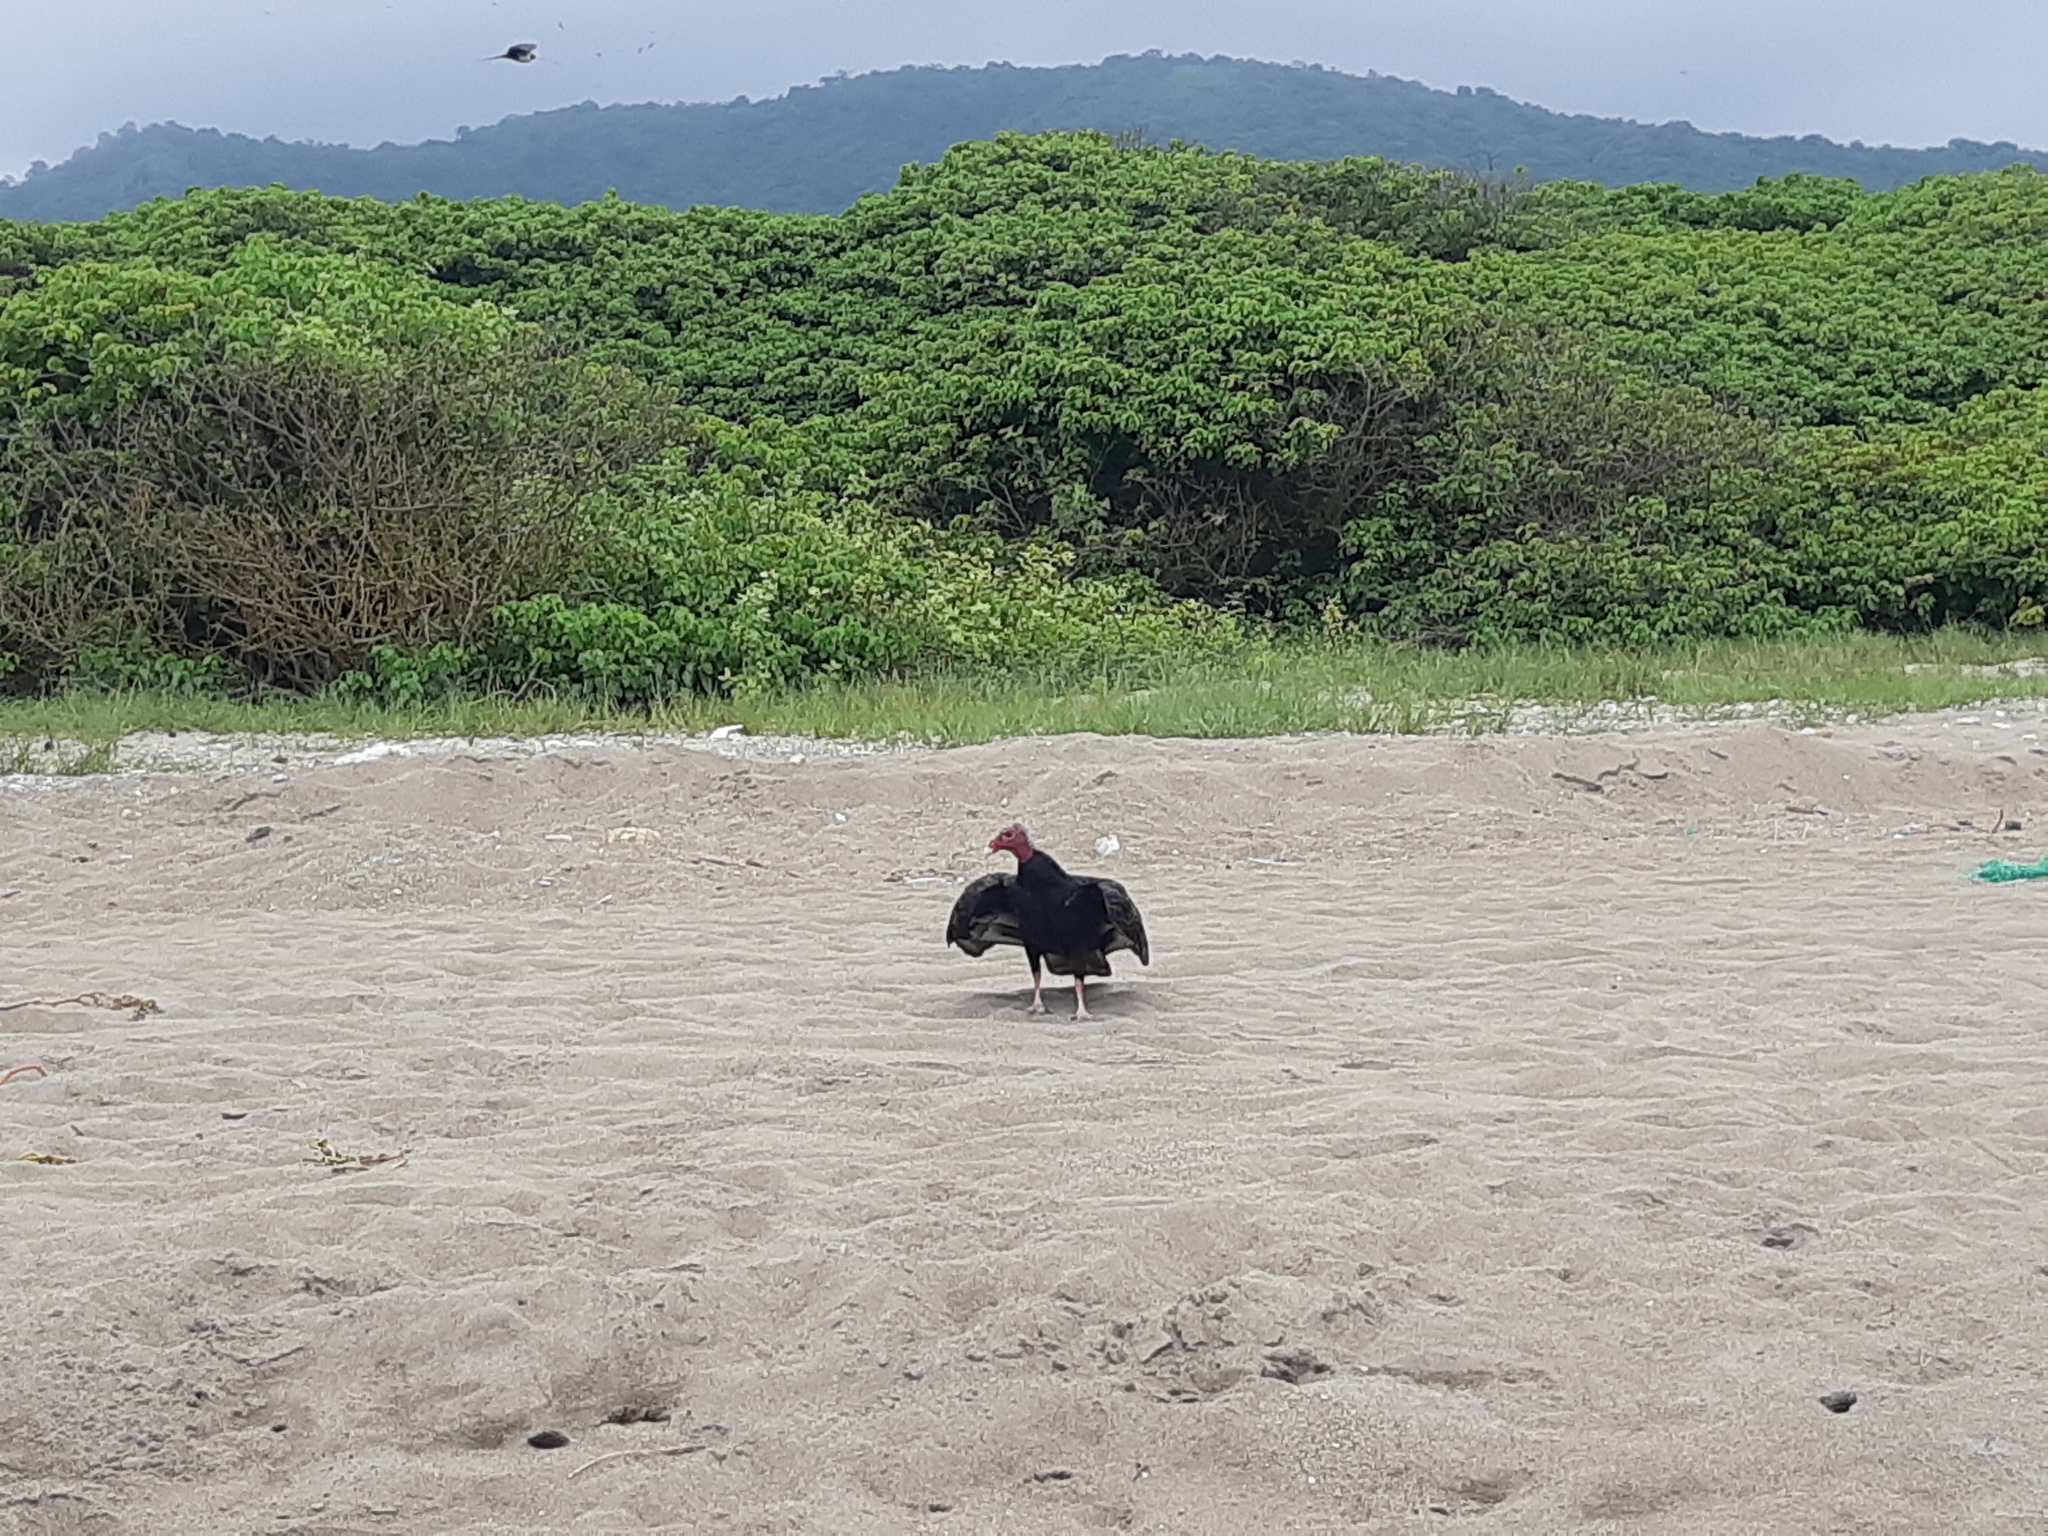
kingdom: Animalia
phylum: Chordata
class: Aves
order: Accipitriformes
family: Cathartidae
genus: Cathartes
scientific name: Cathartes aura
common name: Turkey vulture
